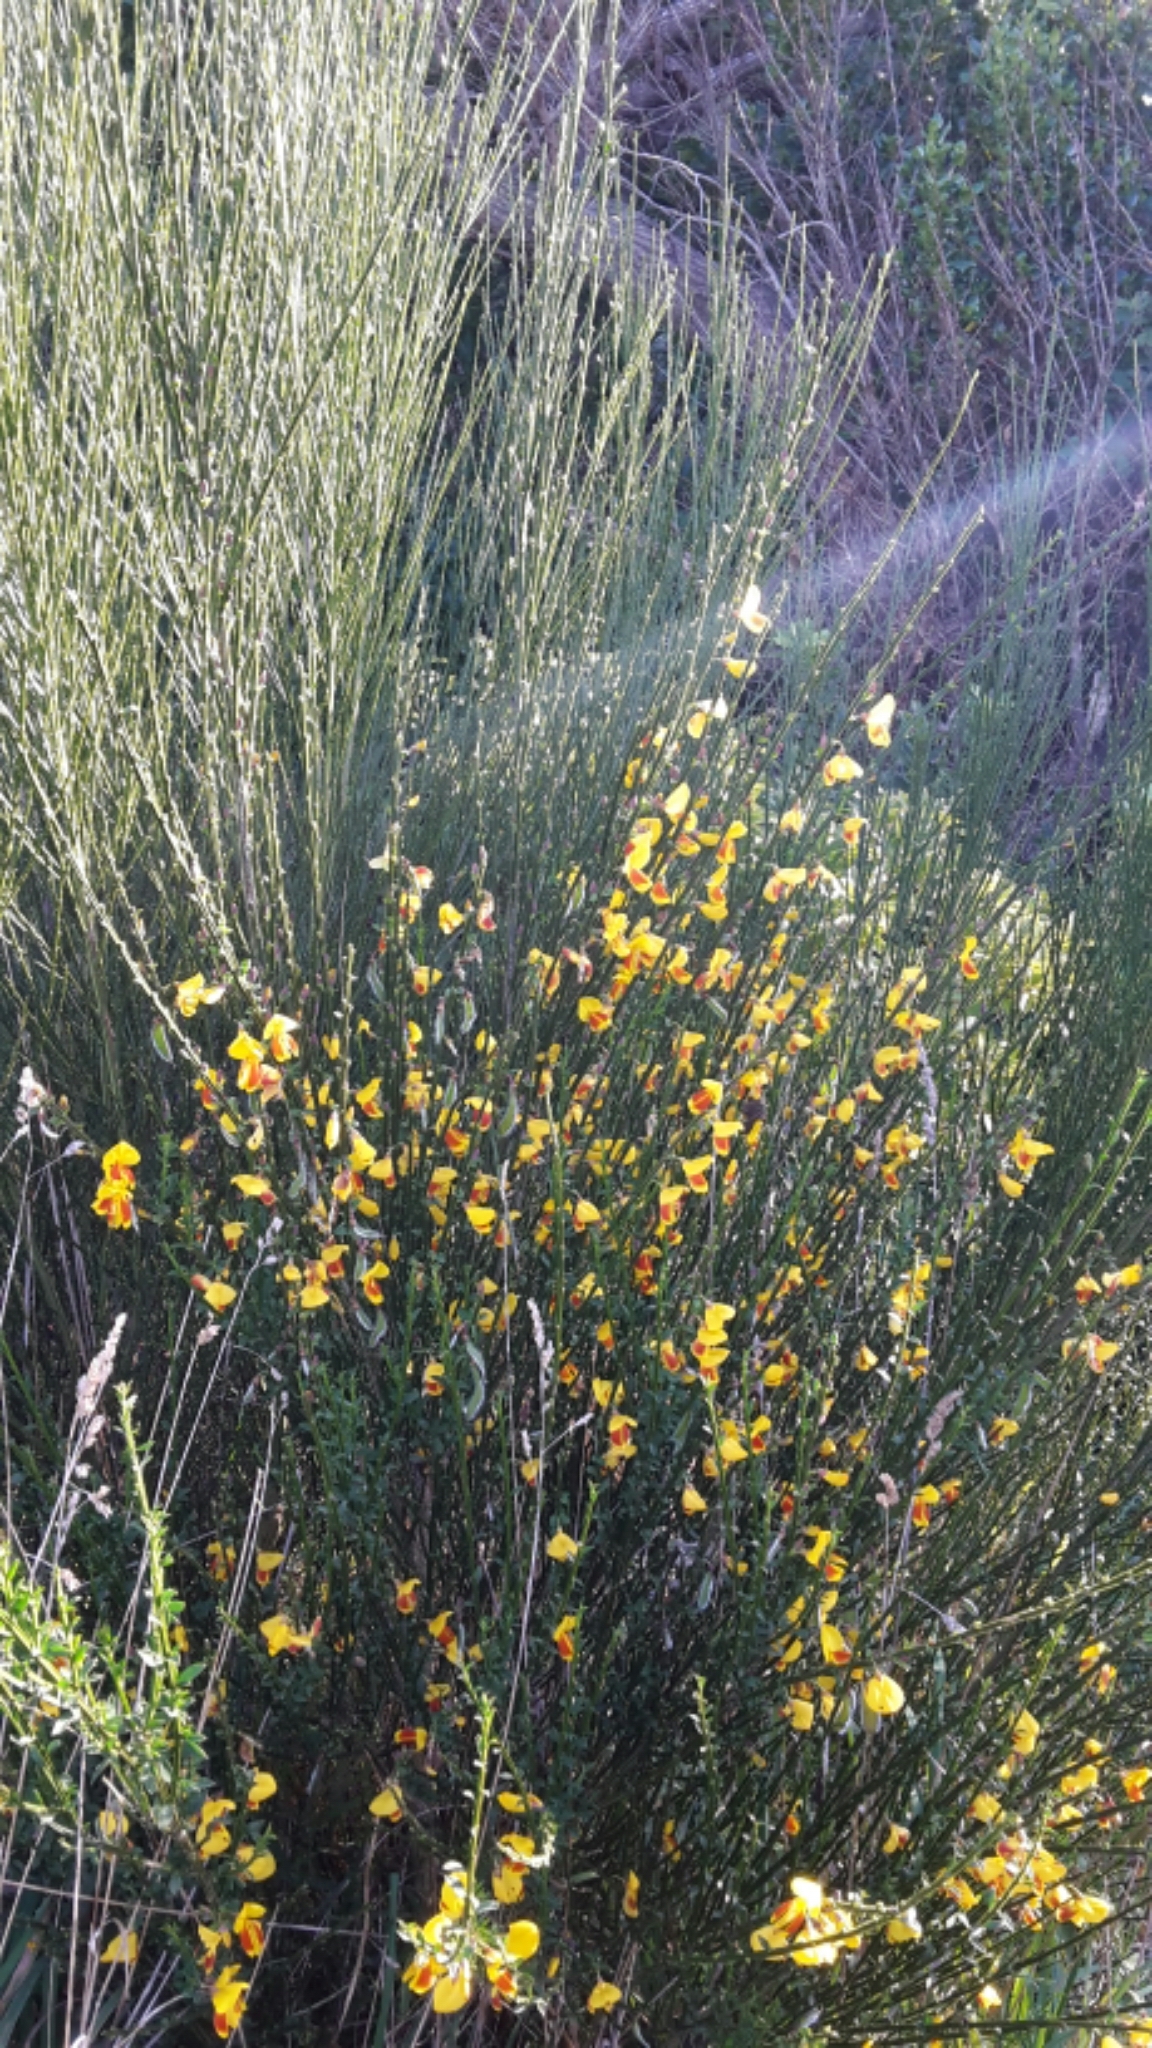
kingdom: Plantae
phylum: Tracheophyta
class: Magnoliopsida
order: Fabales
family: Fabaceae
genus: Cytisus
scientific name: Cytisus scoparius
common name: Scotch broom
